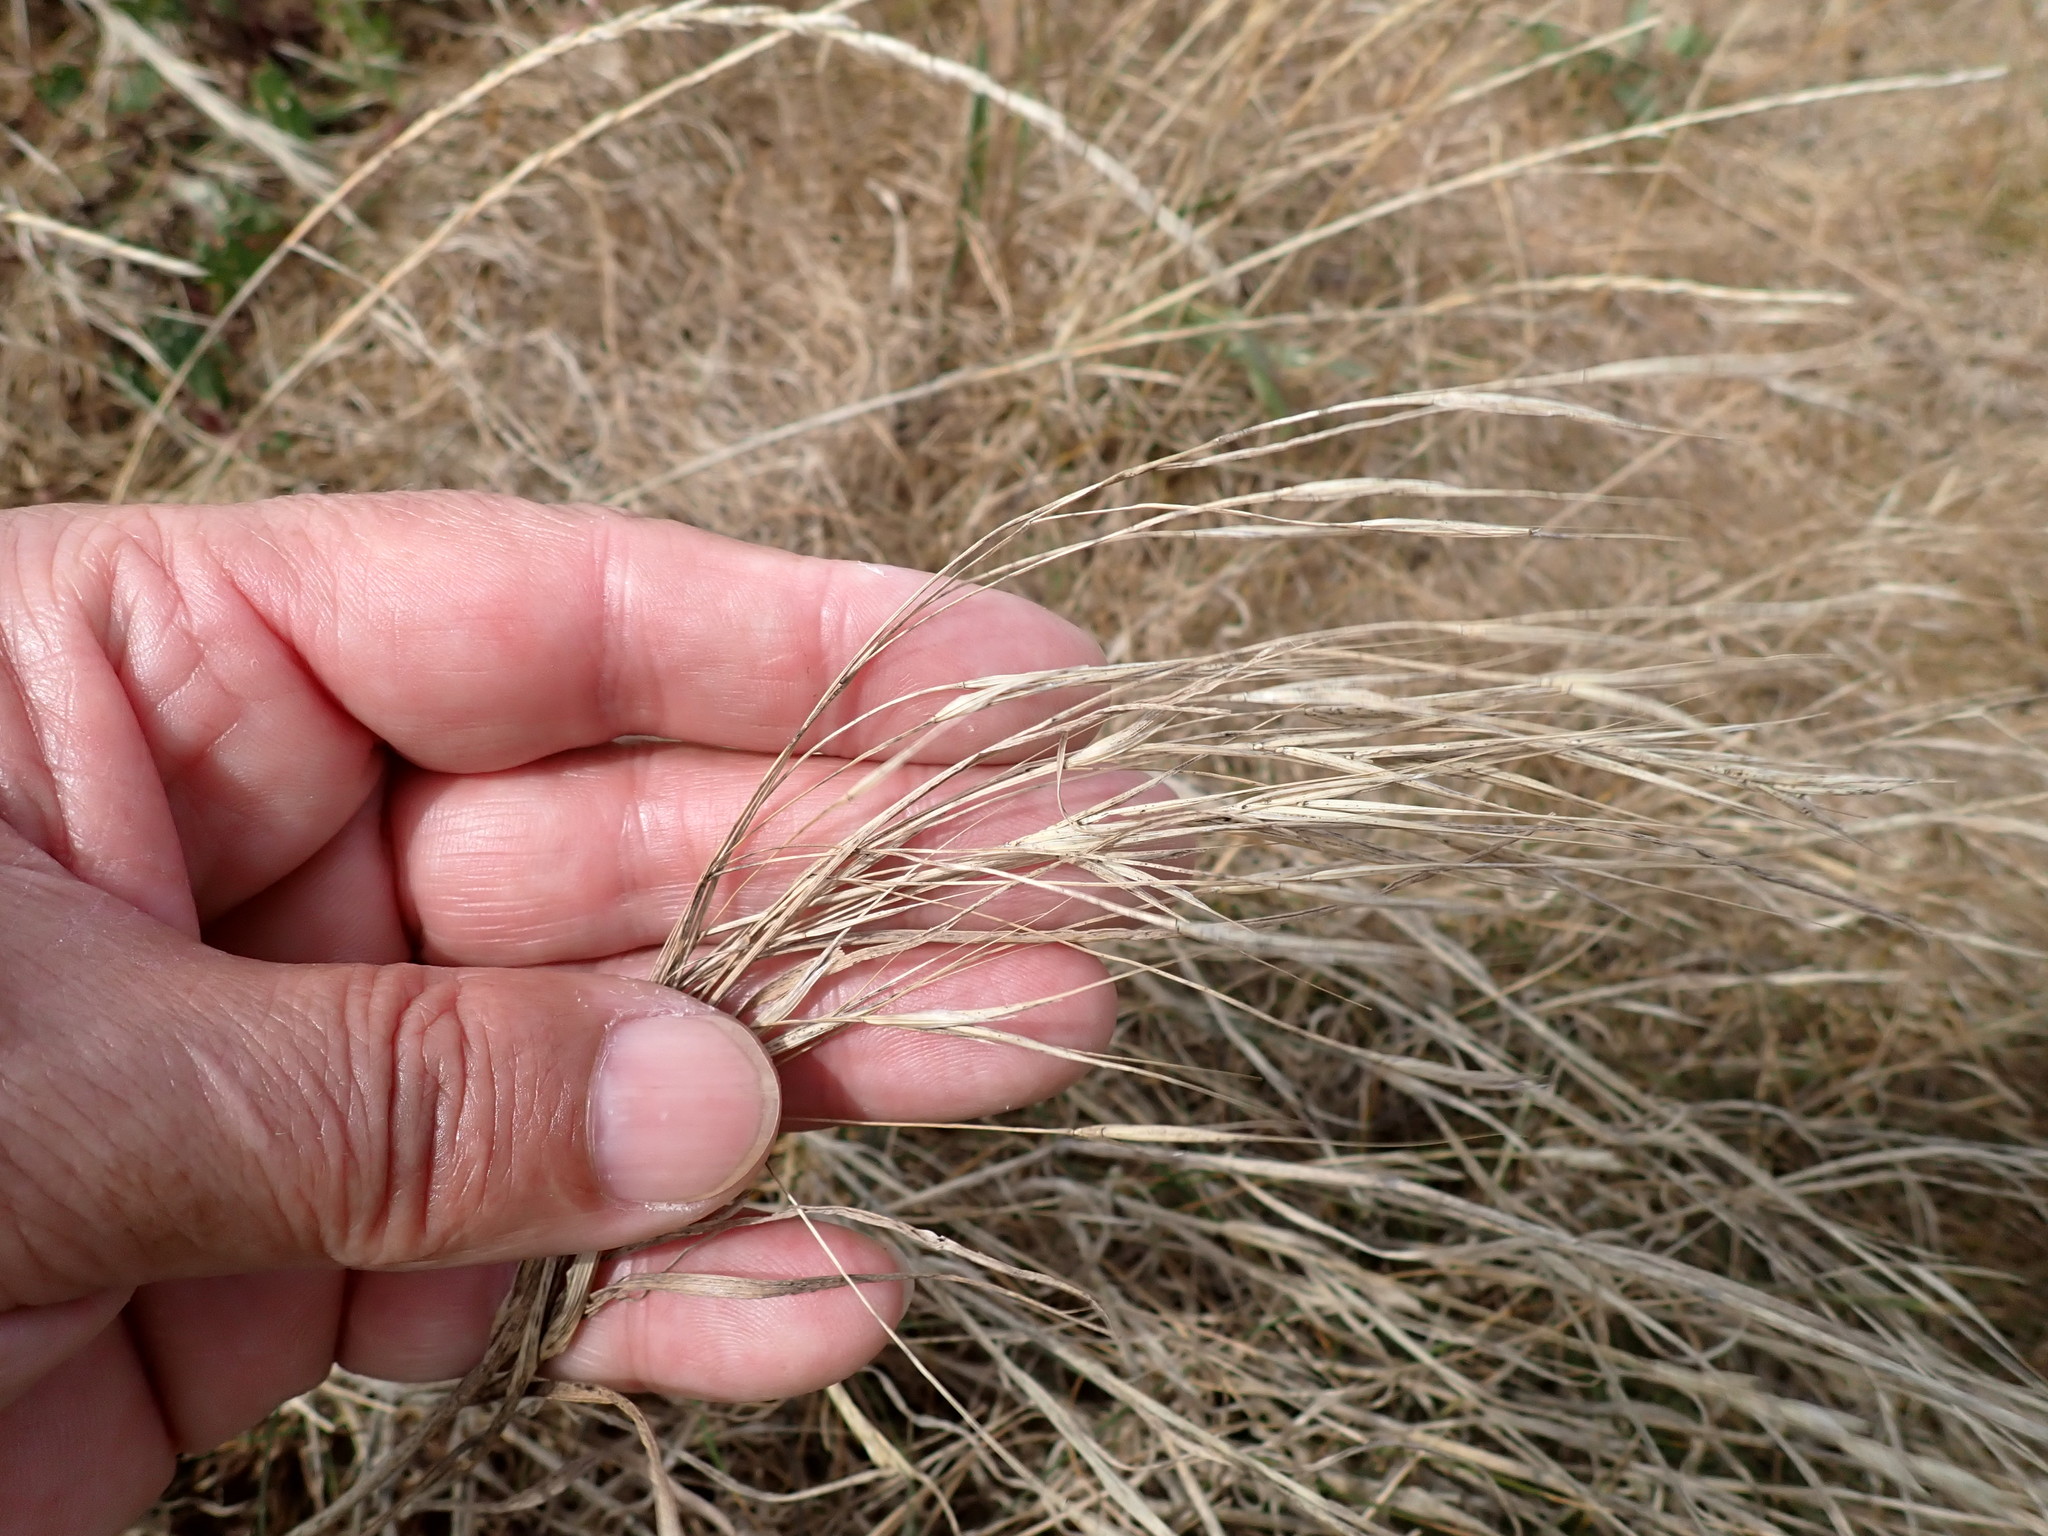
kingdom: Plantae
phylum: Tracheophyta
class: Liliopsida
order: Poales
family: Poaceae
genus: Bromus
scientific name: Bromus sterilis
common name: Poverty brome
